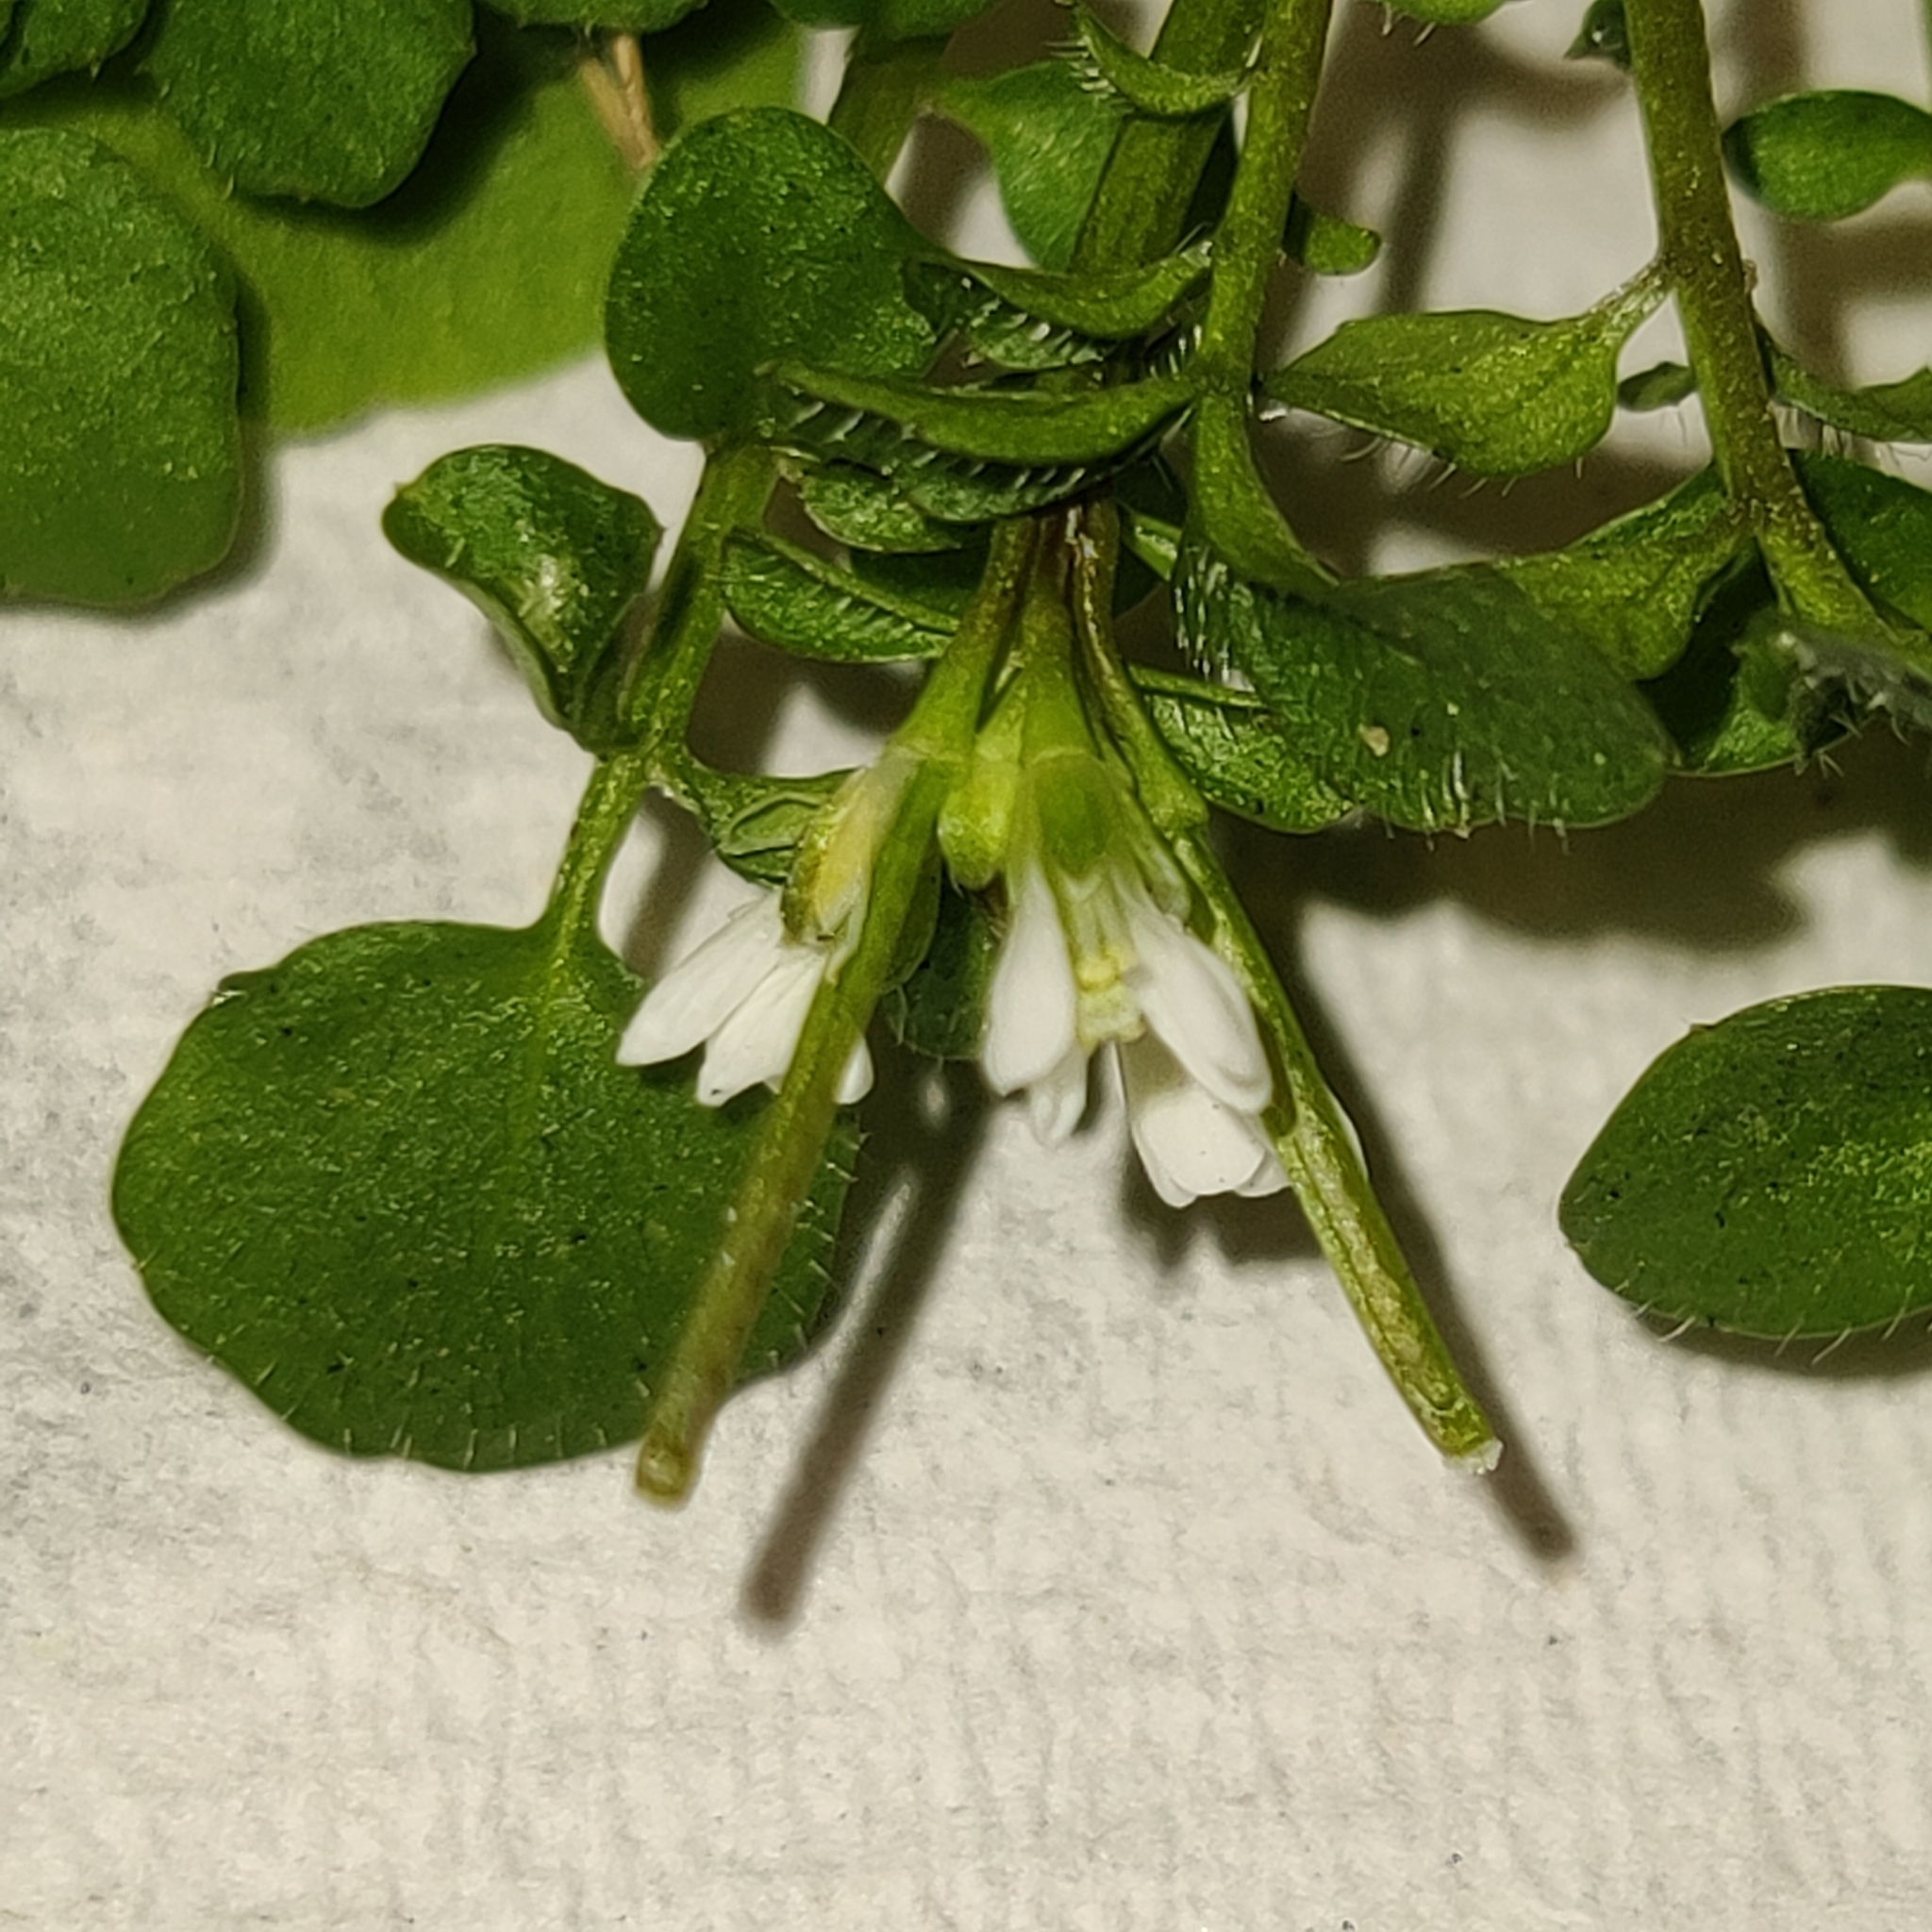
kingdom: Plantae
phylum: Tracheophyta
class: Magnoliopsida
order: Brassicales
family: Brassicaceae
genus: Cardamine
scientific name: Cardamine hirsuta
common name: Hairy bittercress
